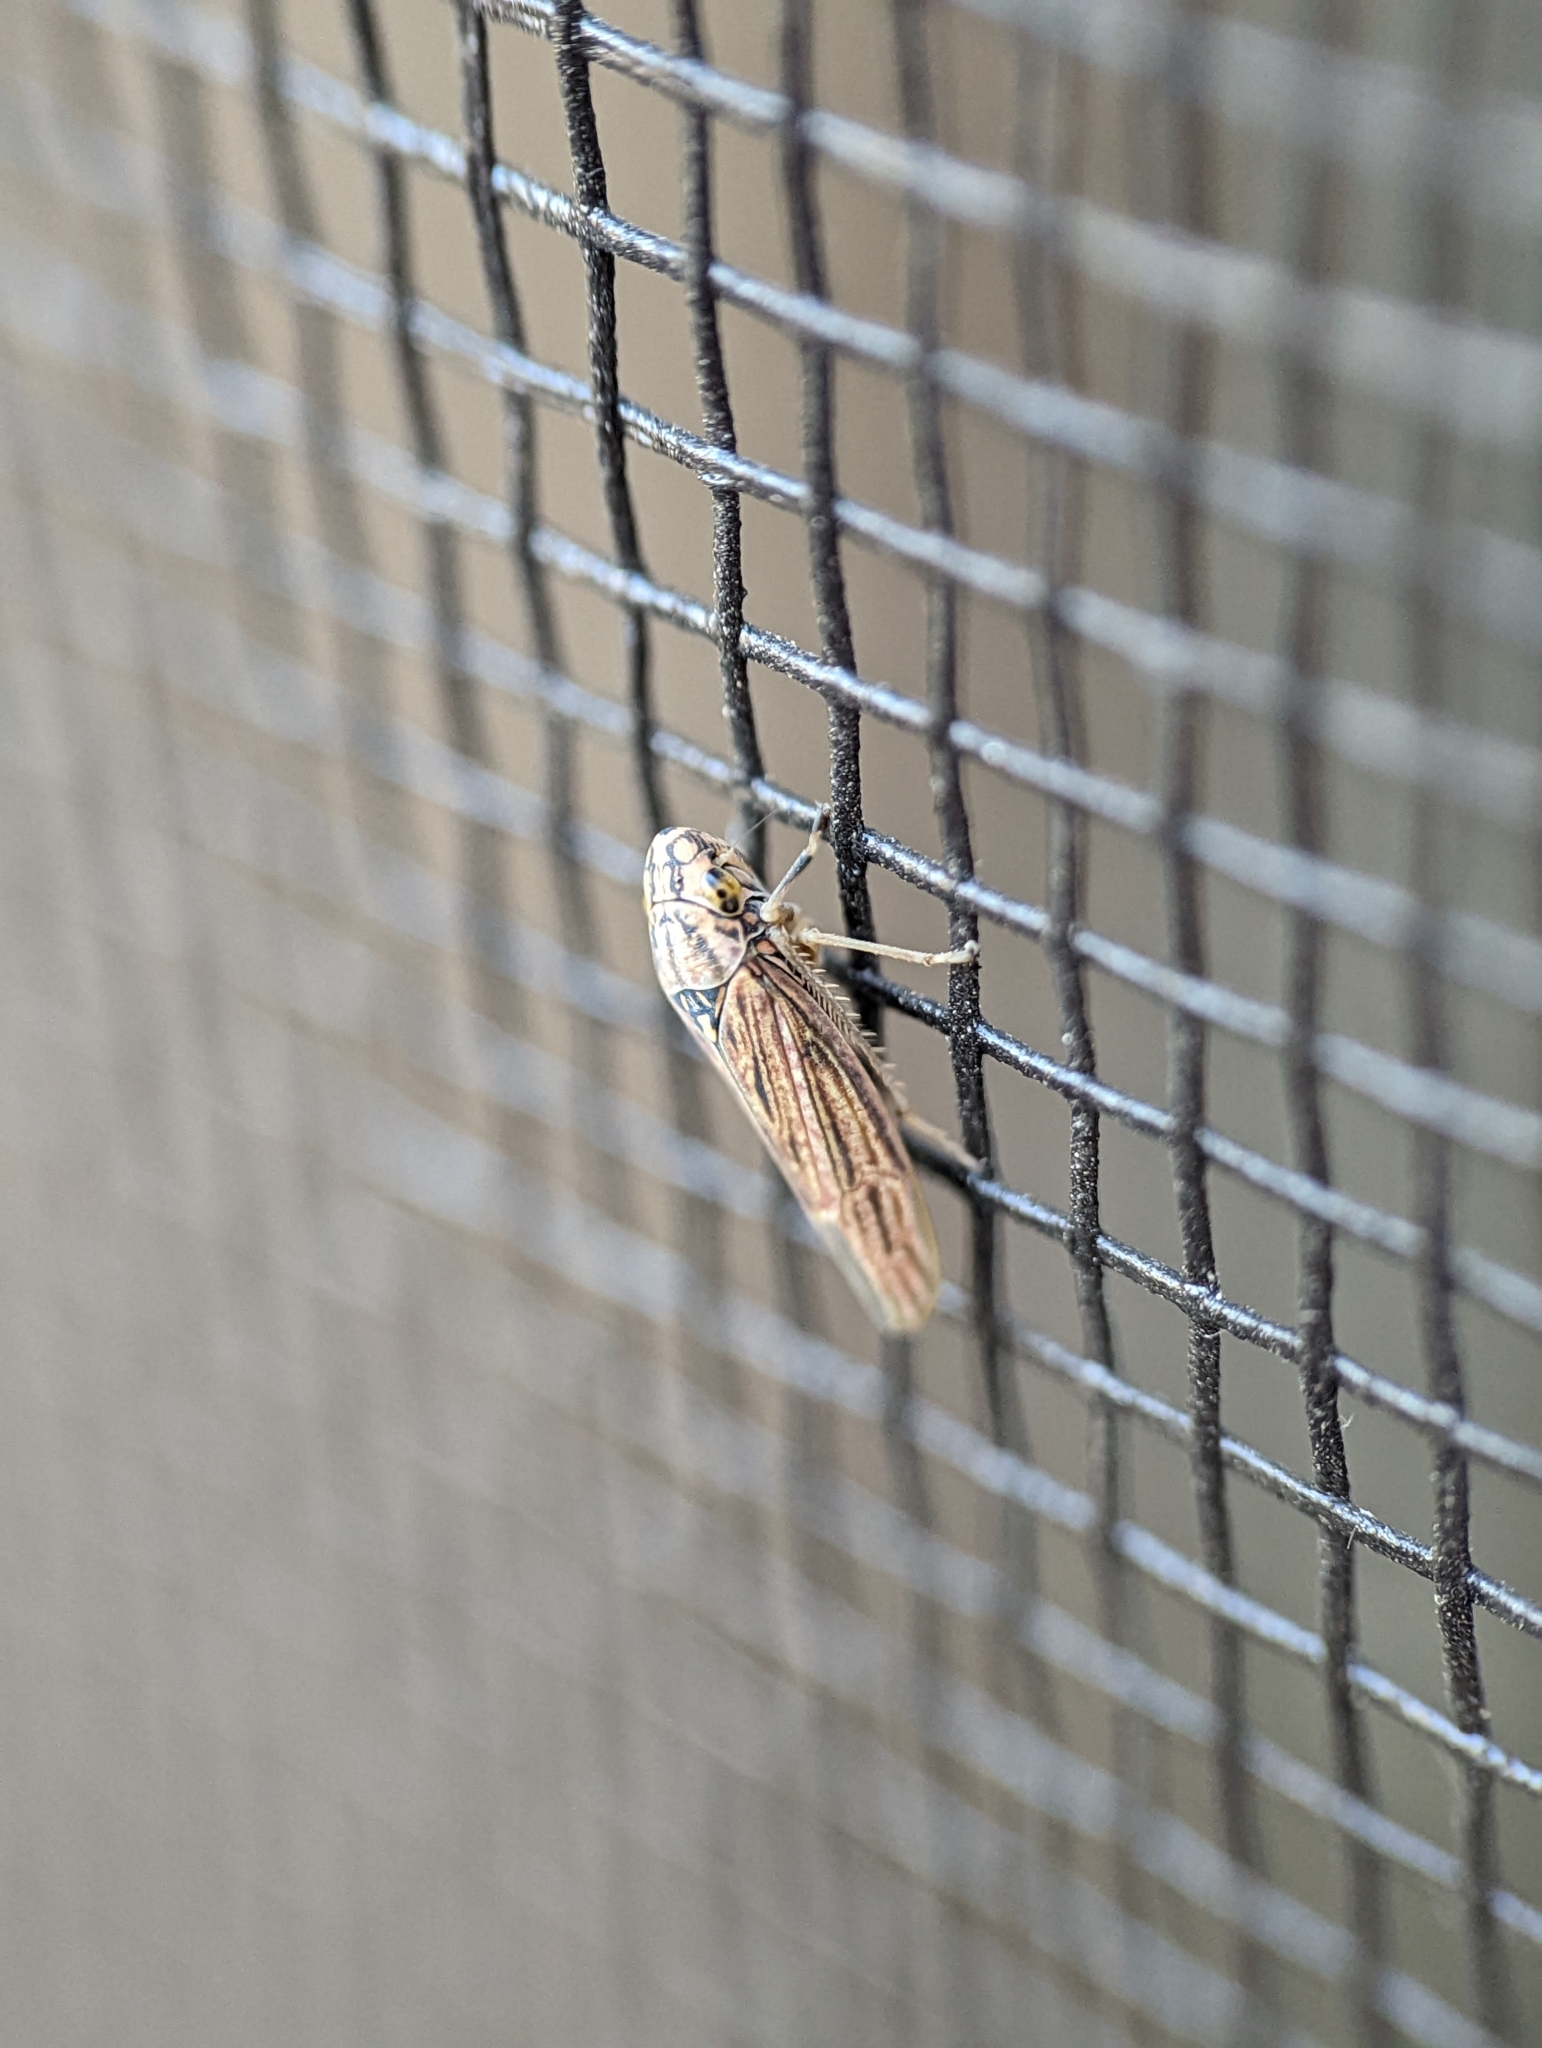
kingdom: Animalia
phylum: Arthropoda
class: Insecta
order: Hemiptera
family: Cicadellidae
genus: Neokolla
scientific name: Neokolla hieroglyphica
